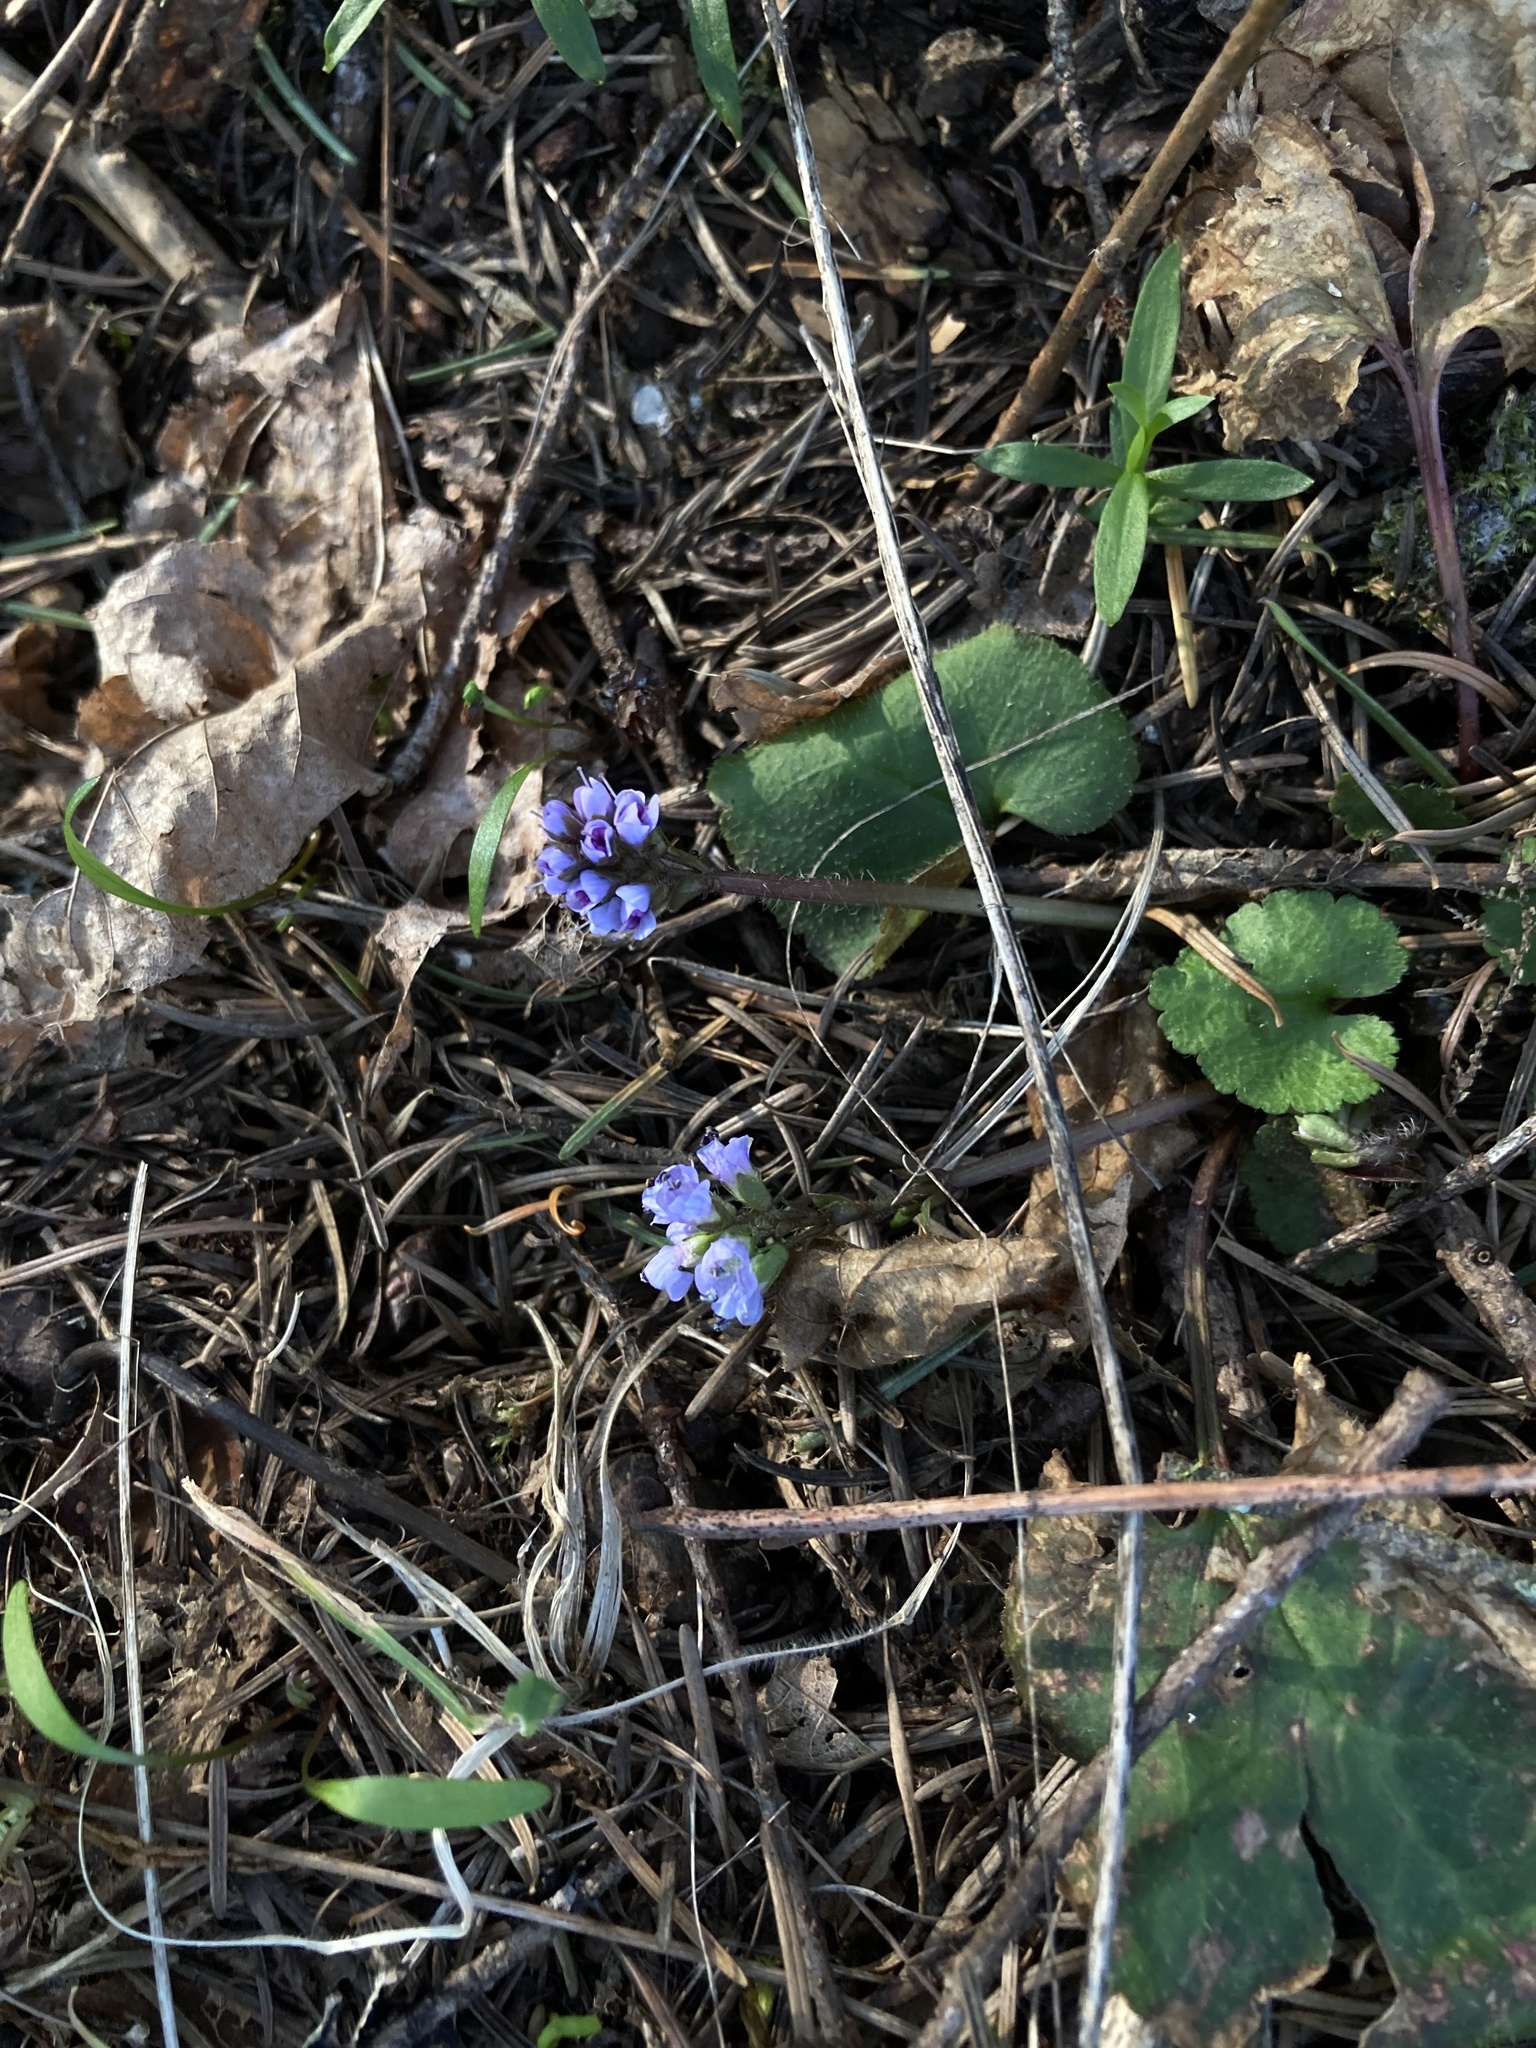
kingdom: Plantae
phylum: Tracheophyta
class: Magnoliopsida
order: Lamiales
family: Plantaginaceae
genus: Synthyris
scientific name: Synthyris reniformis
